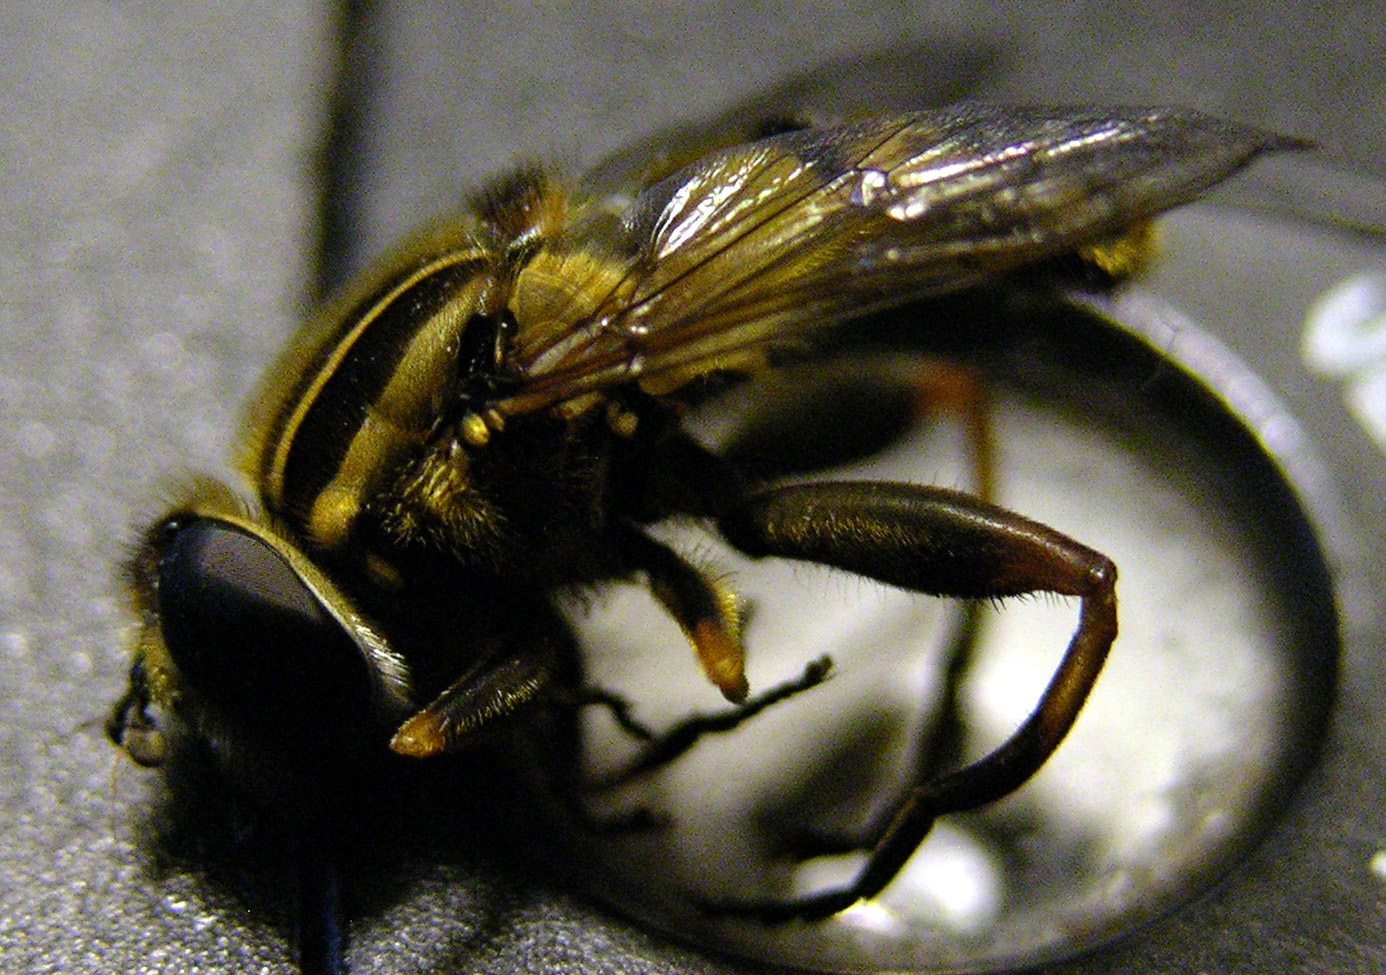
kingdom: Animalia
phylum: Arthropoda
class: Insecta
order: Diptera
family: Syrphidae
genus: Helophilus
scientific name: Helophilus pendulus
